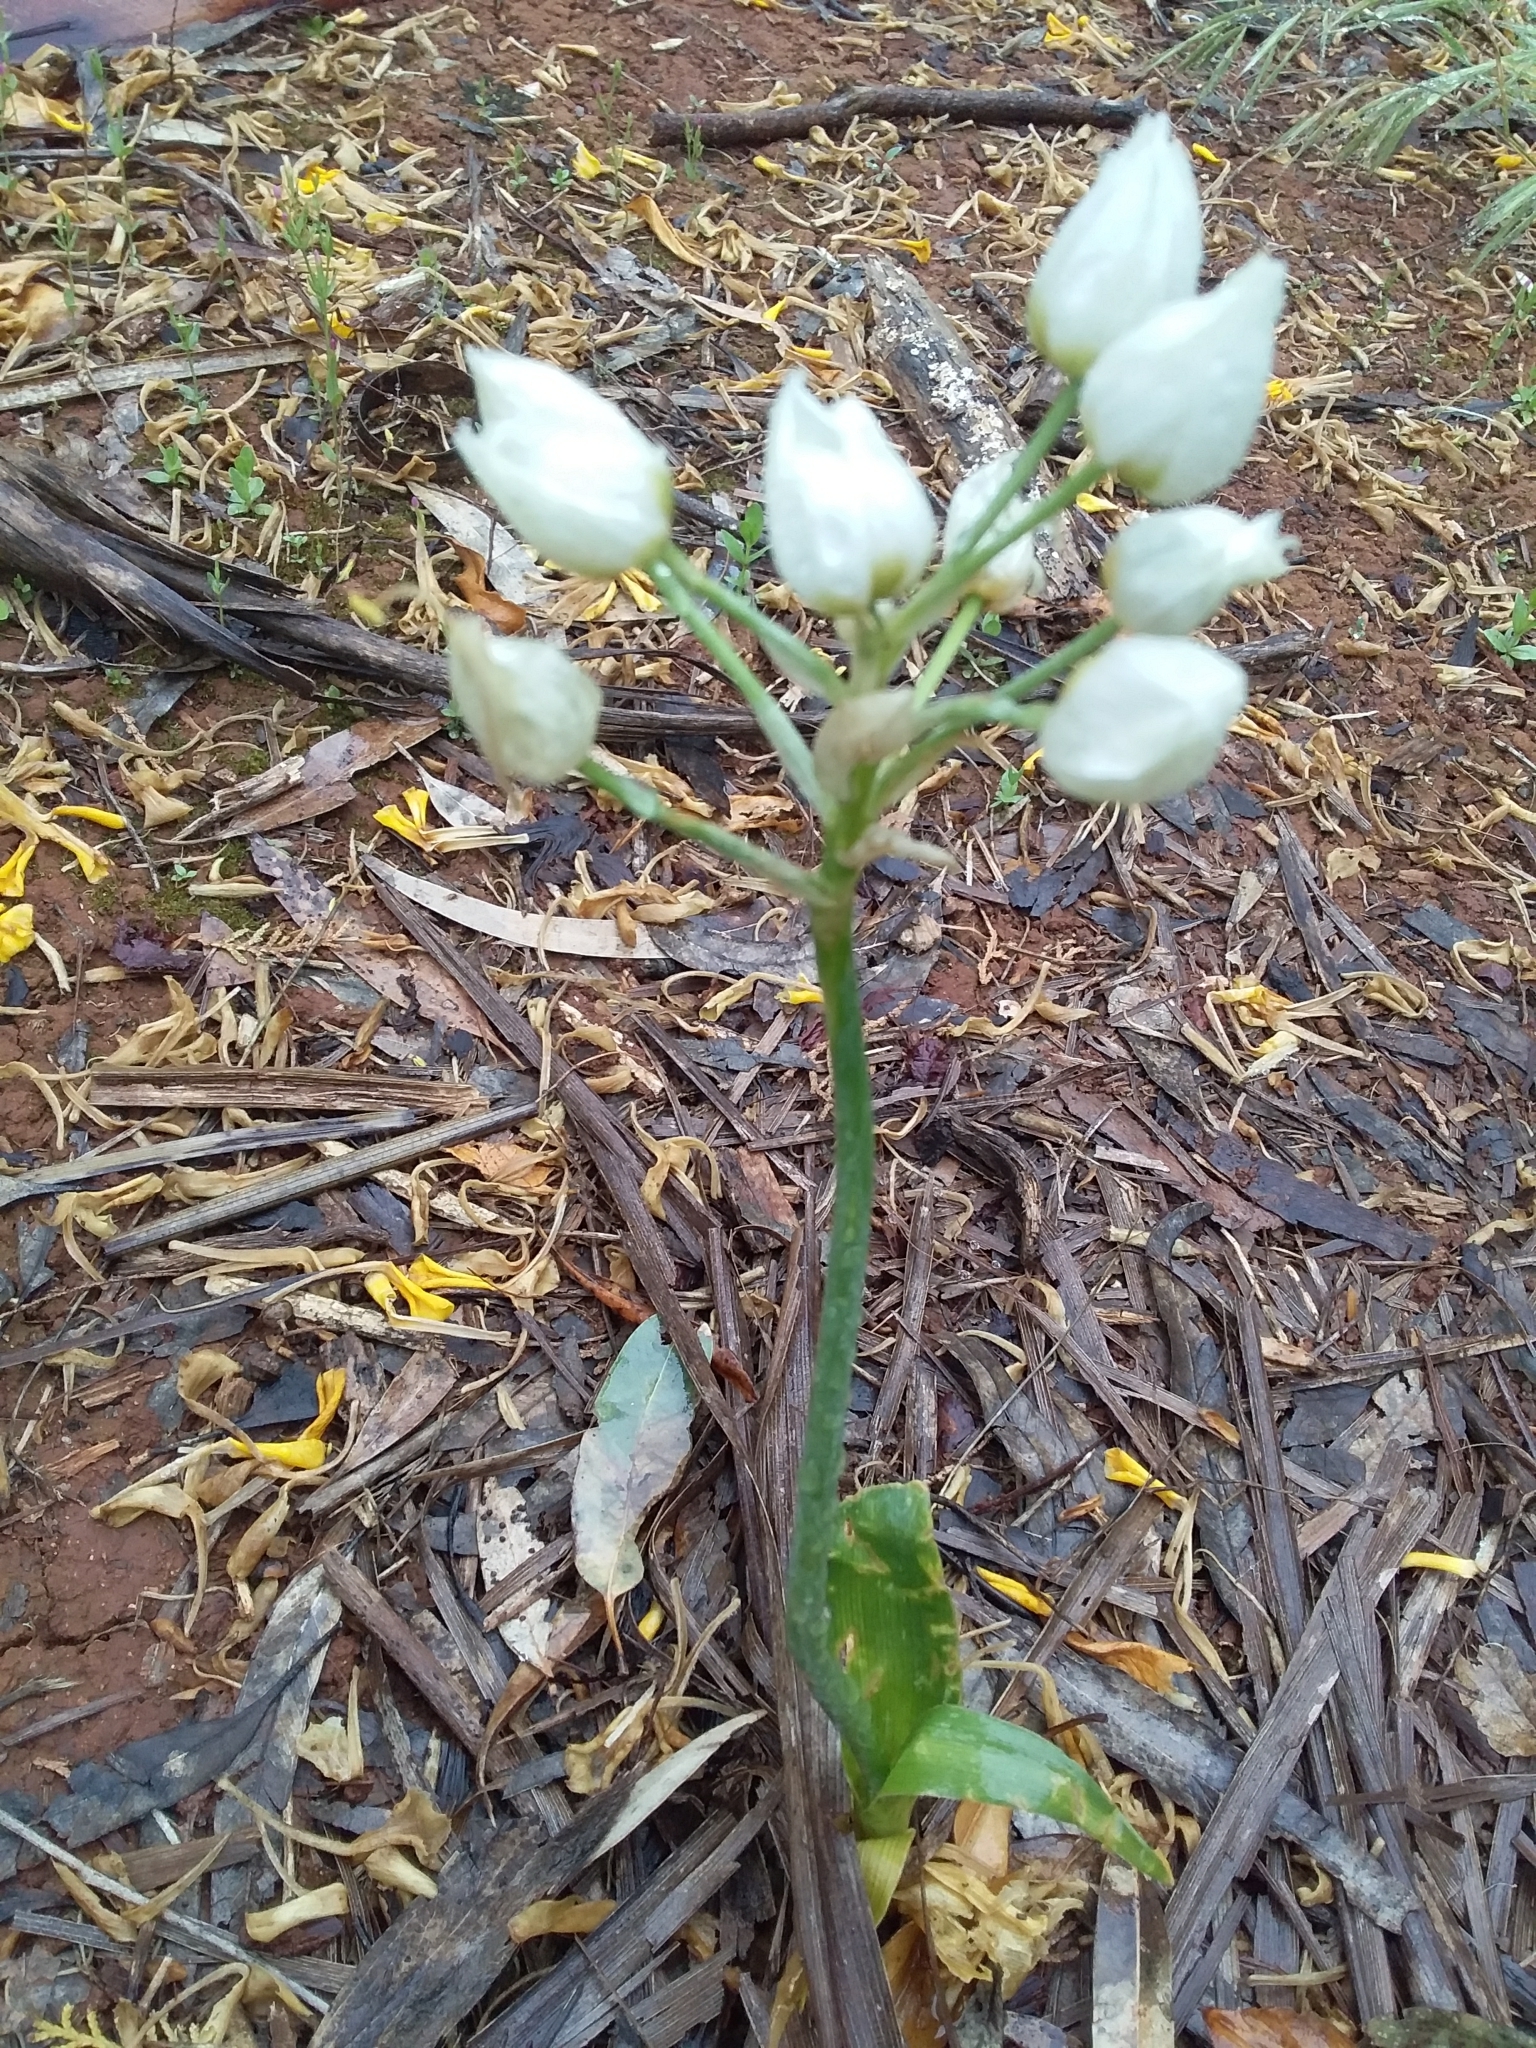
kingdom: Plantae
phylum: Tracheophyta
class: Liliopsida
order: Asparagales
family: Asparagaceae
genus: Ornithogalum
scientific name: Ornithogalum thyrsoides
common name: Chincherinchee
